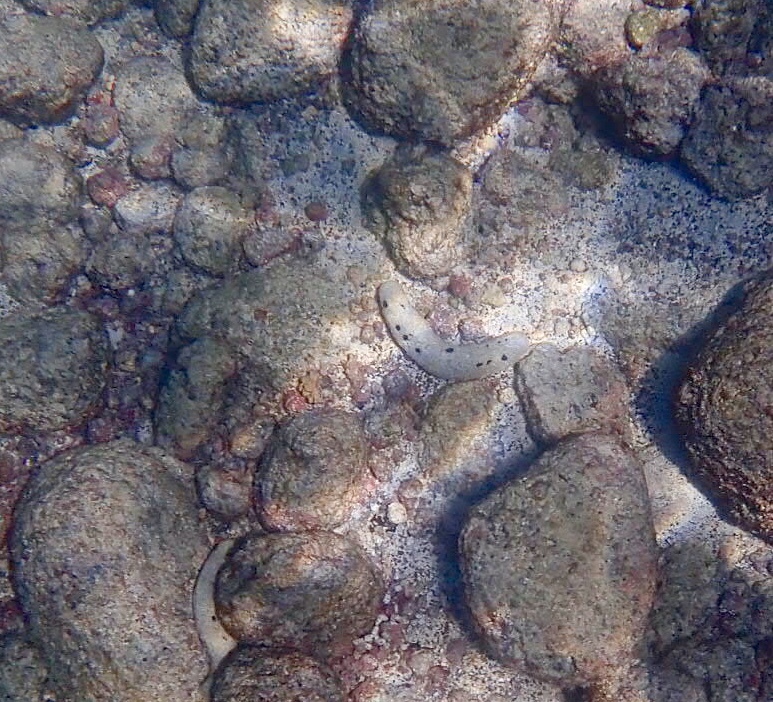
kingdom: Animalia
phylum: Echinodermata
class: Holothuroidea
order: Holothuriida
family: Holothuriidae
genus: Holothuria
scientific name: Holothuria atra
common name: Lollyfish
